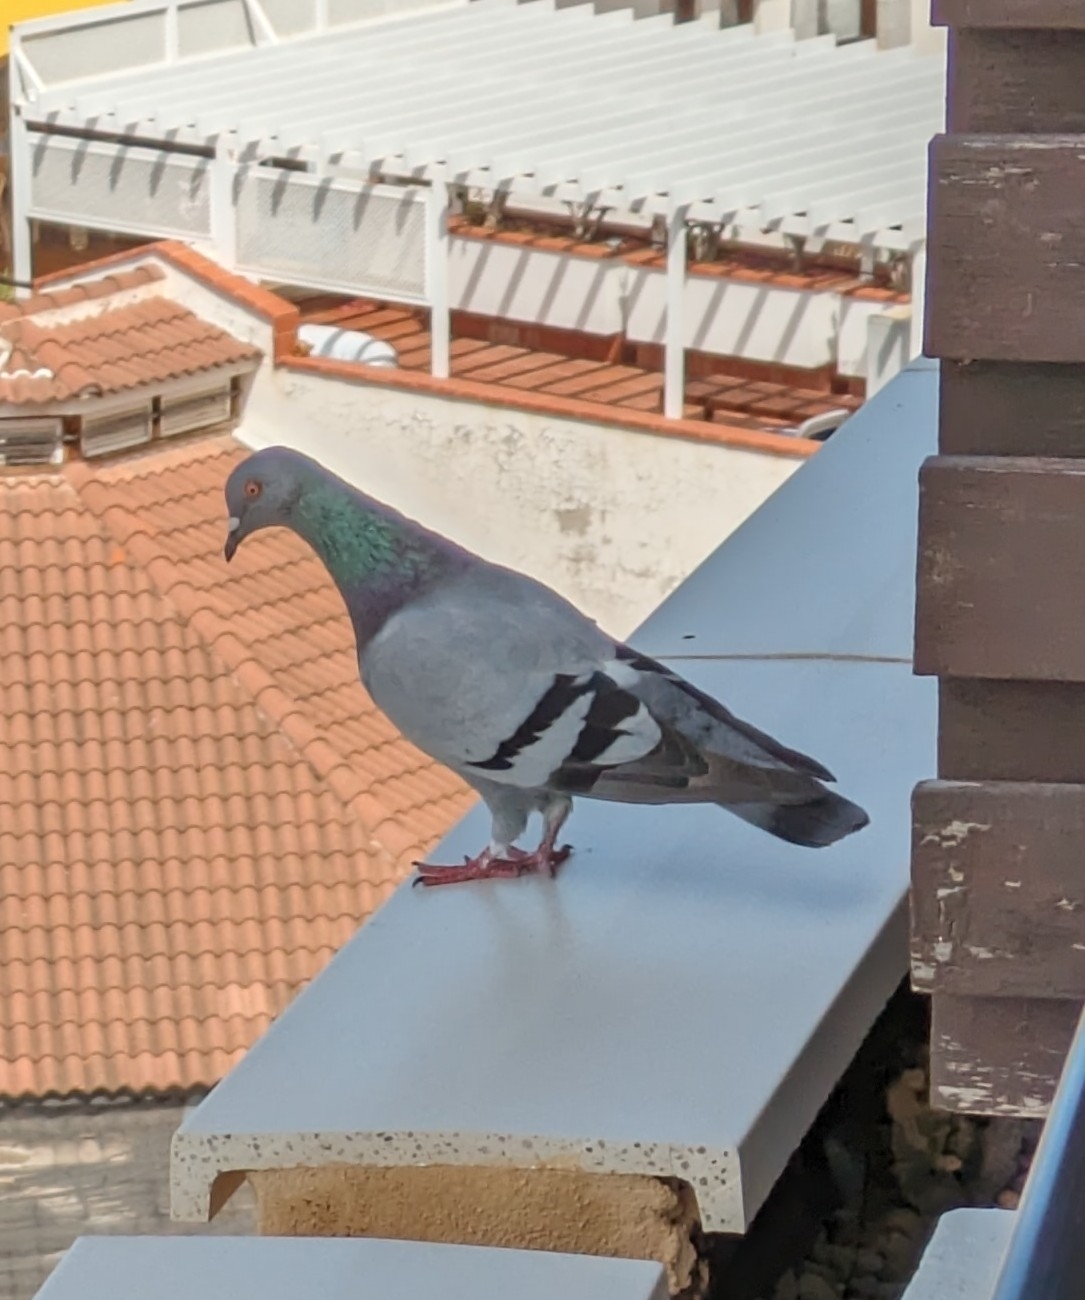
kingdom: Animalia
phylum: Chordata
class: Aves
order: Columbiformes
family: Columbidae
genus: Columba
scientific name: Columba livia
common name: Rock pigeon
